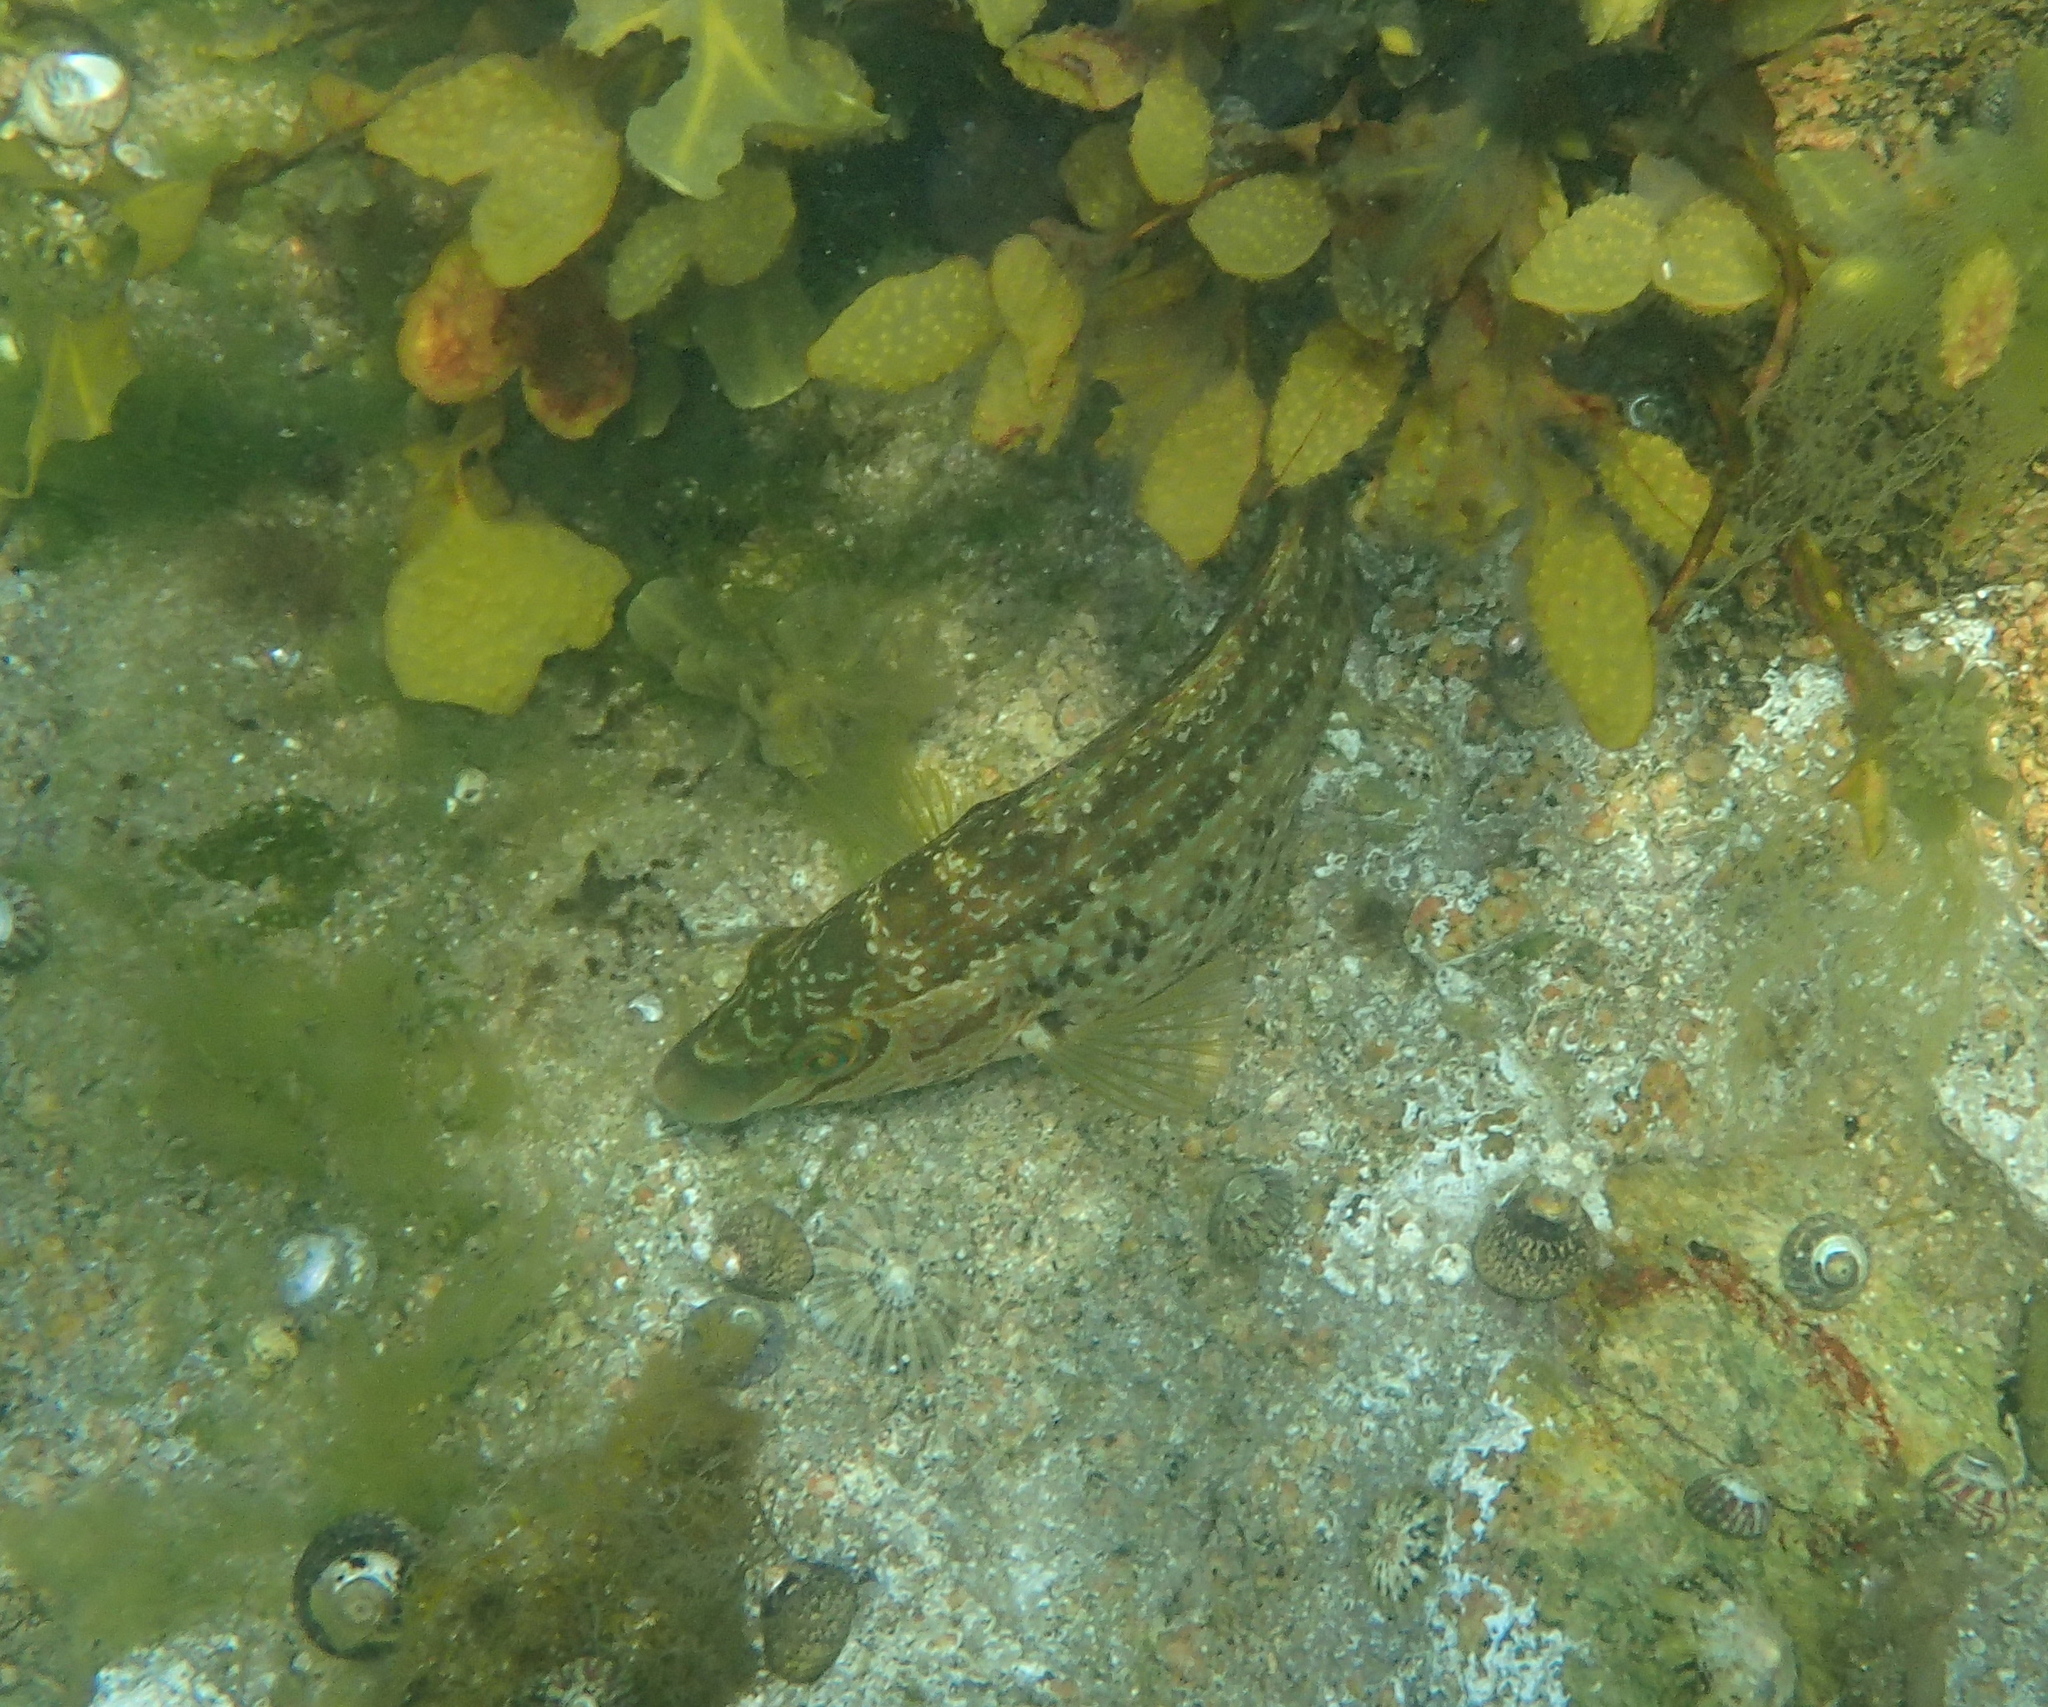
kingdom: Animalia
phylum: Chordata
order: Perciformes
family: Labridae
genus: Symphodus
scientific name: Symphodus melops
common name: Corkwing
